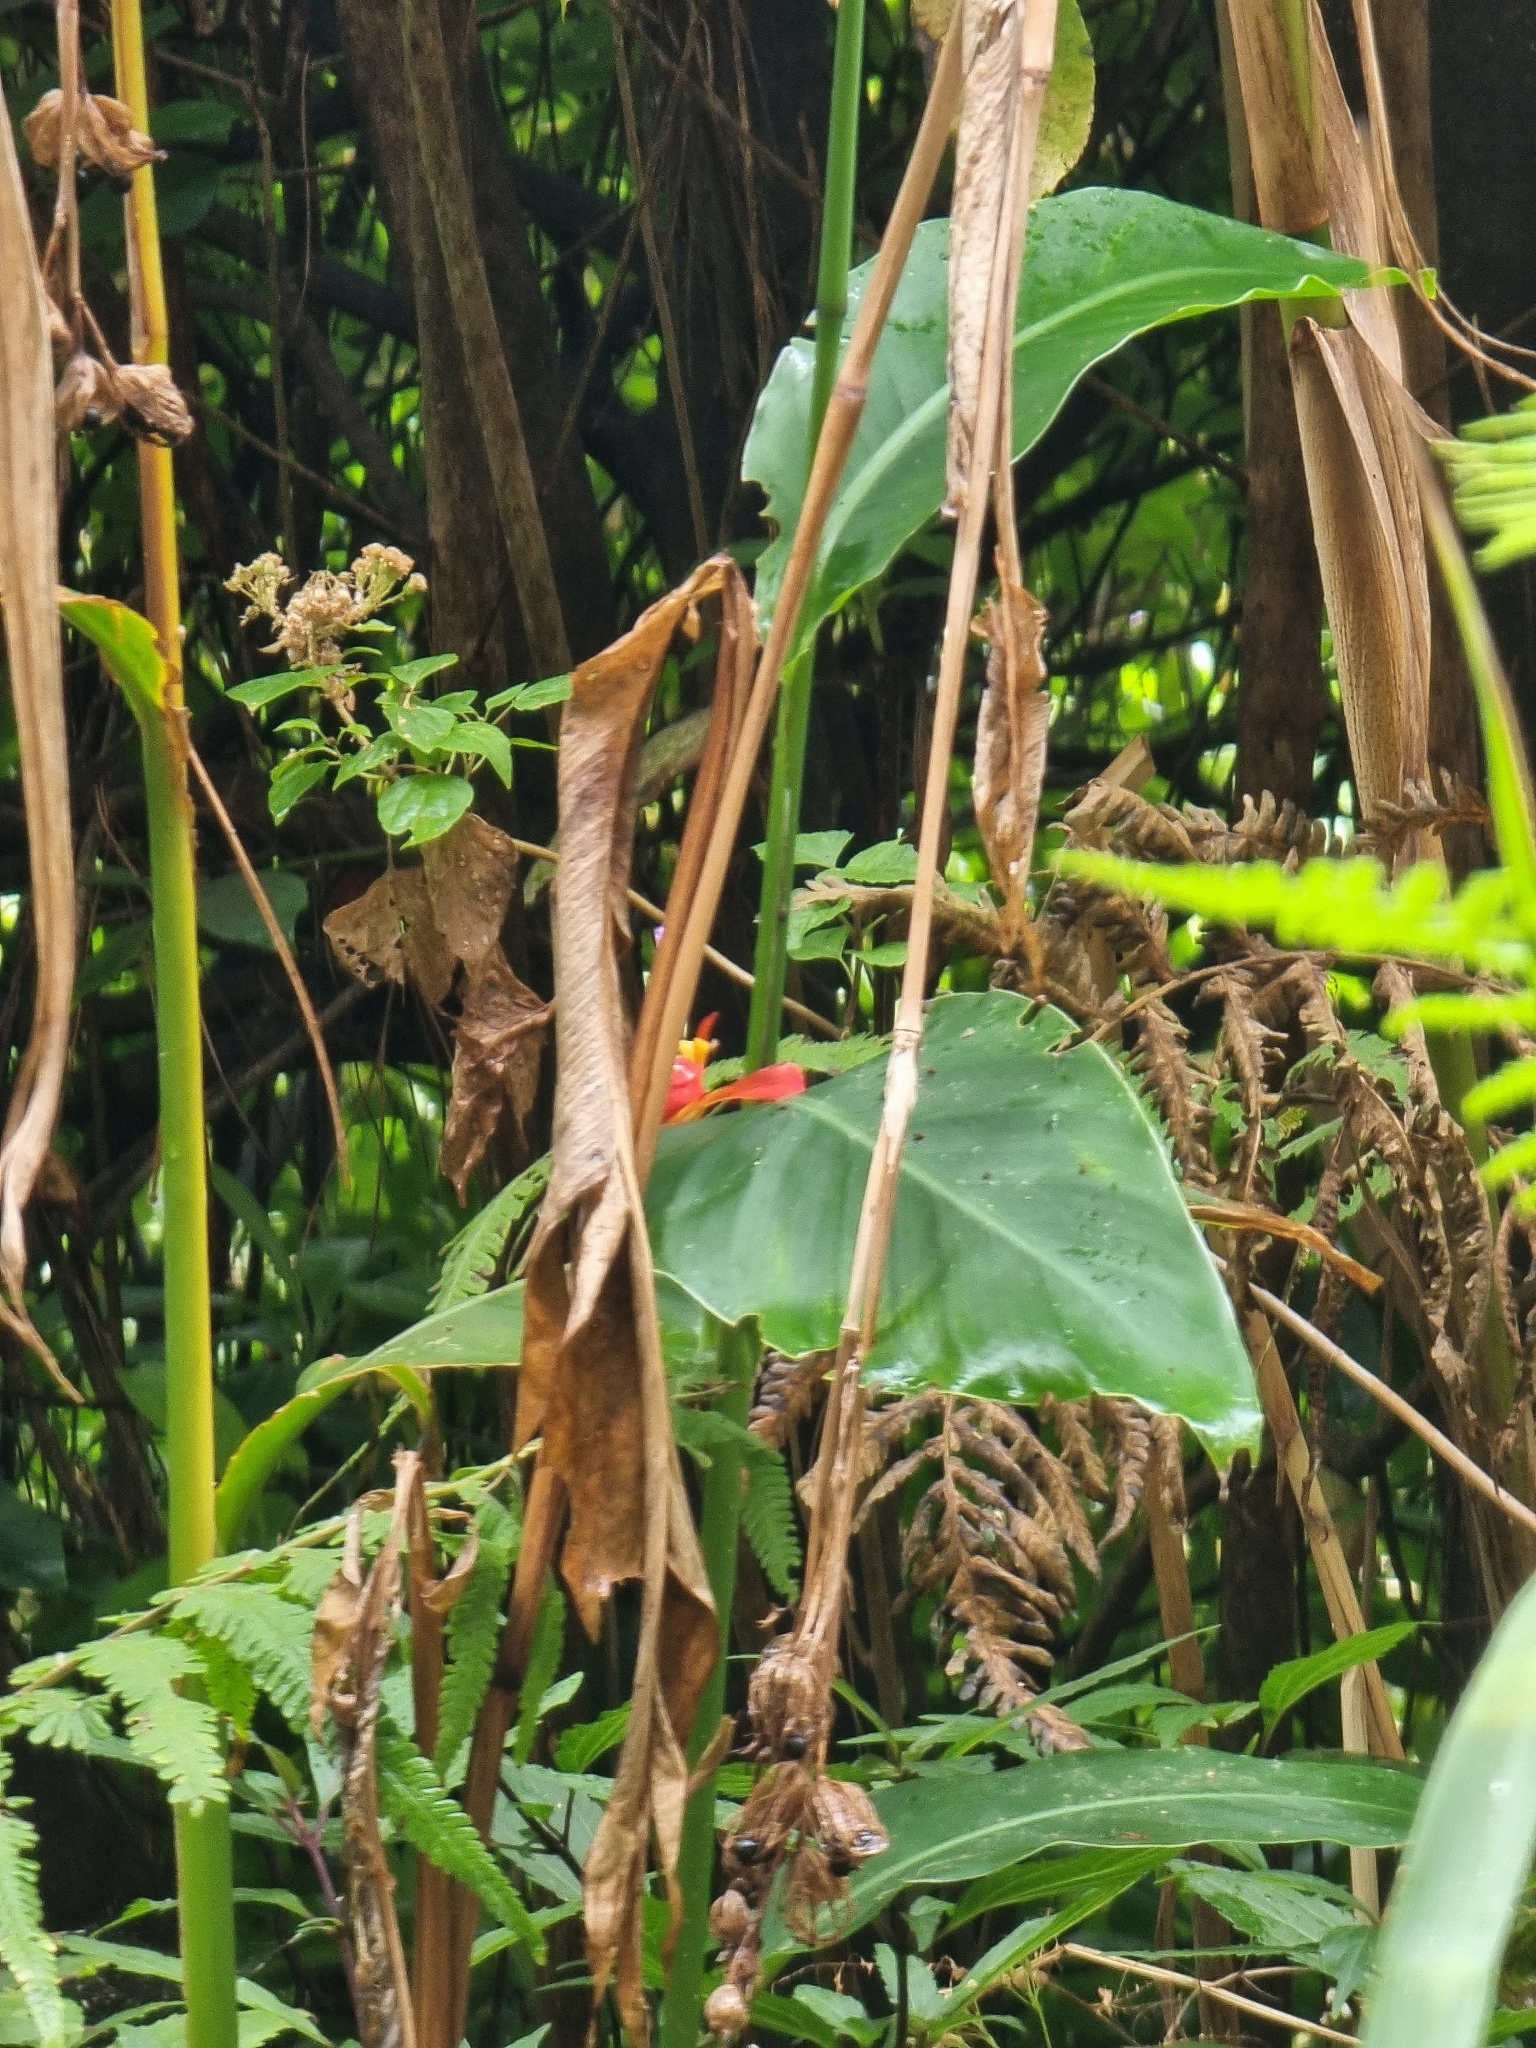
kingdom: Plantae
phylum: Tracheophyta
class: Liliopsida
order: Zingiberales
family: Cannaceae
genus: Canna
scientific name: Canna indica
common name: Indian shot
